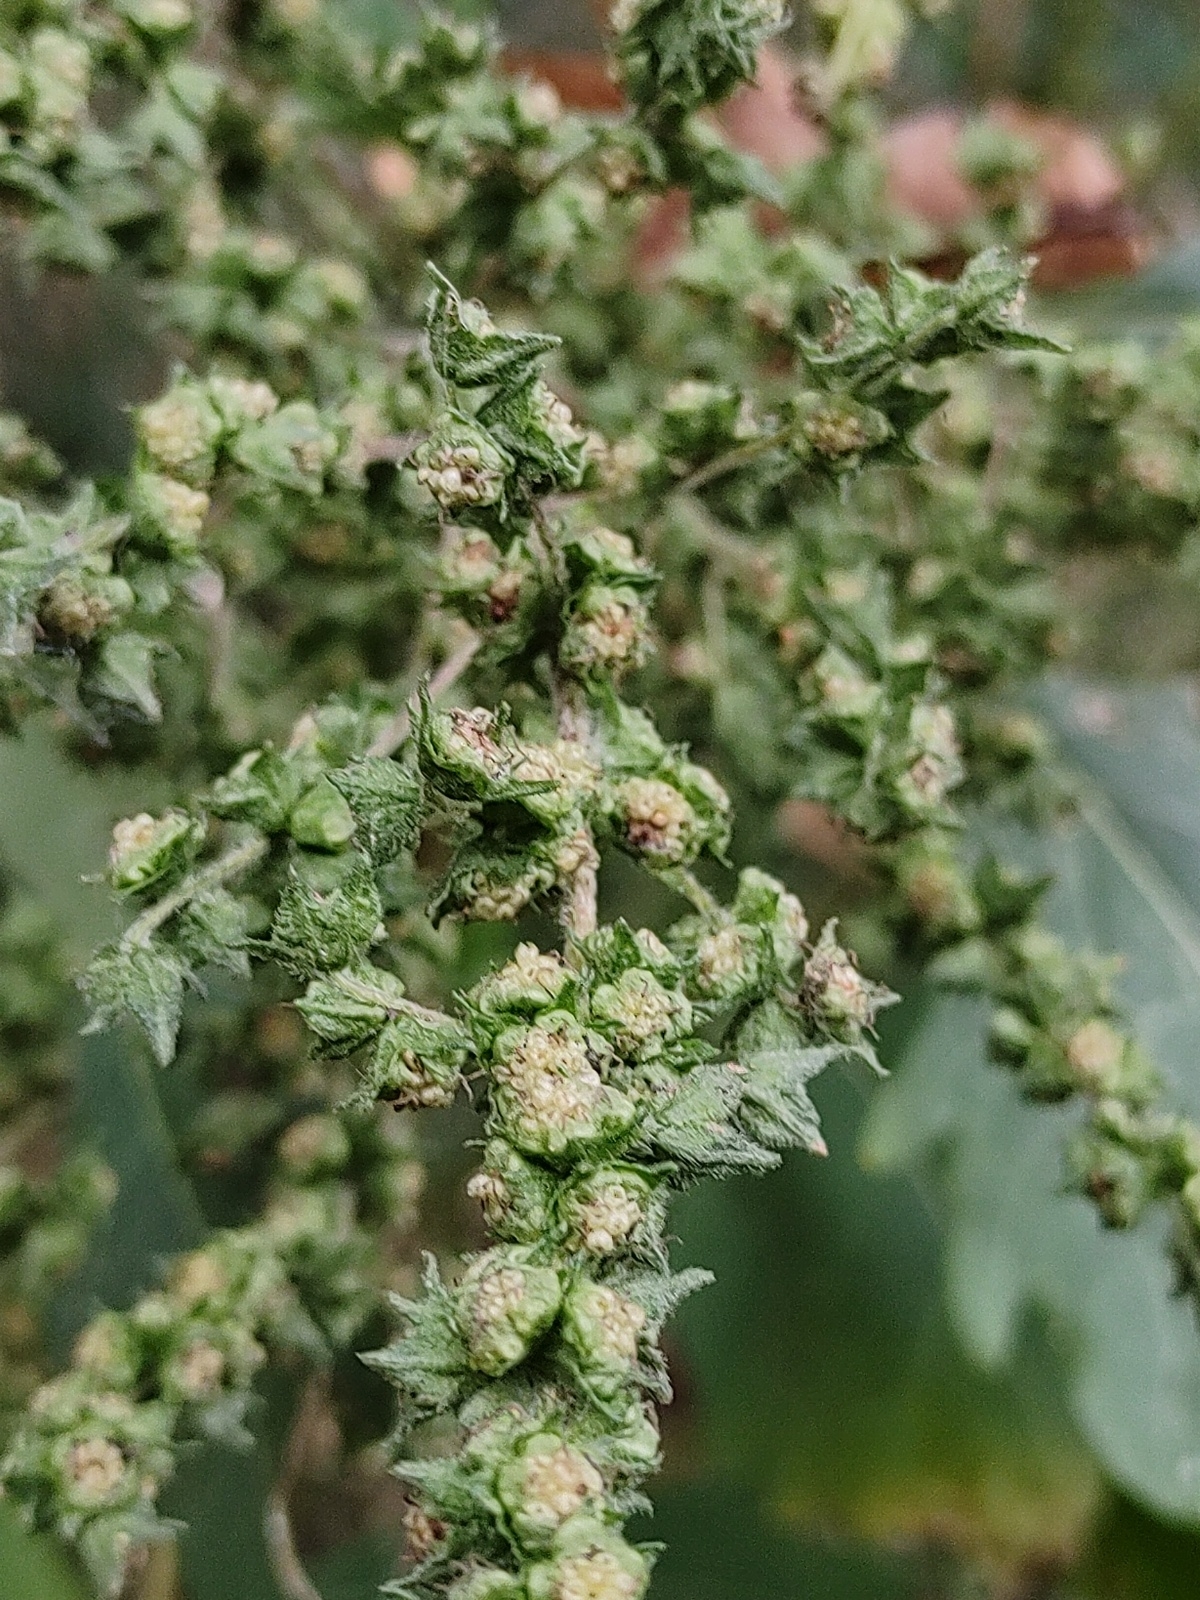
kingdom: Plantae
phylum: Tracheophyta
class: Magnoliopsida
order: Asterales
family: Asteraceae
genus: Cyclachaena
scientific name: Cyclachaena xanthiifolia
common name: Giant sumpweed
